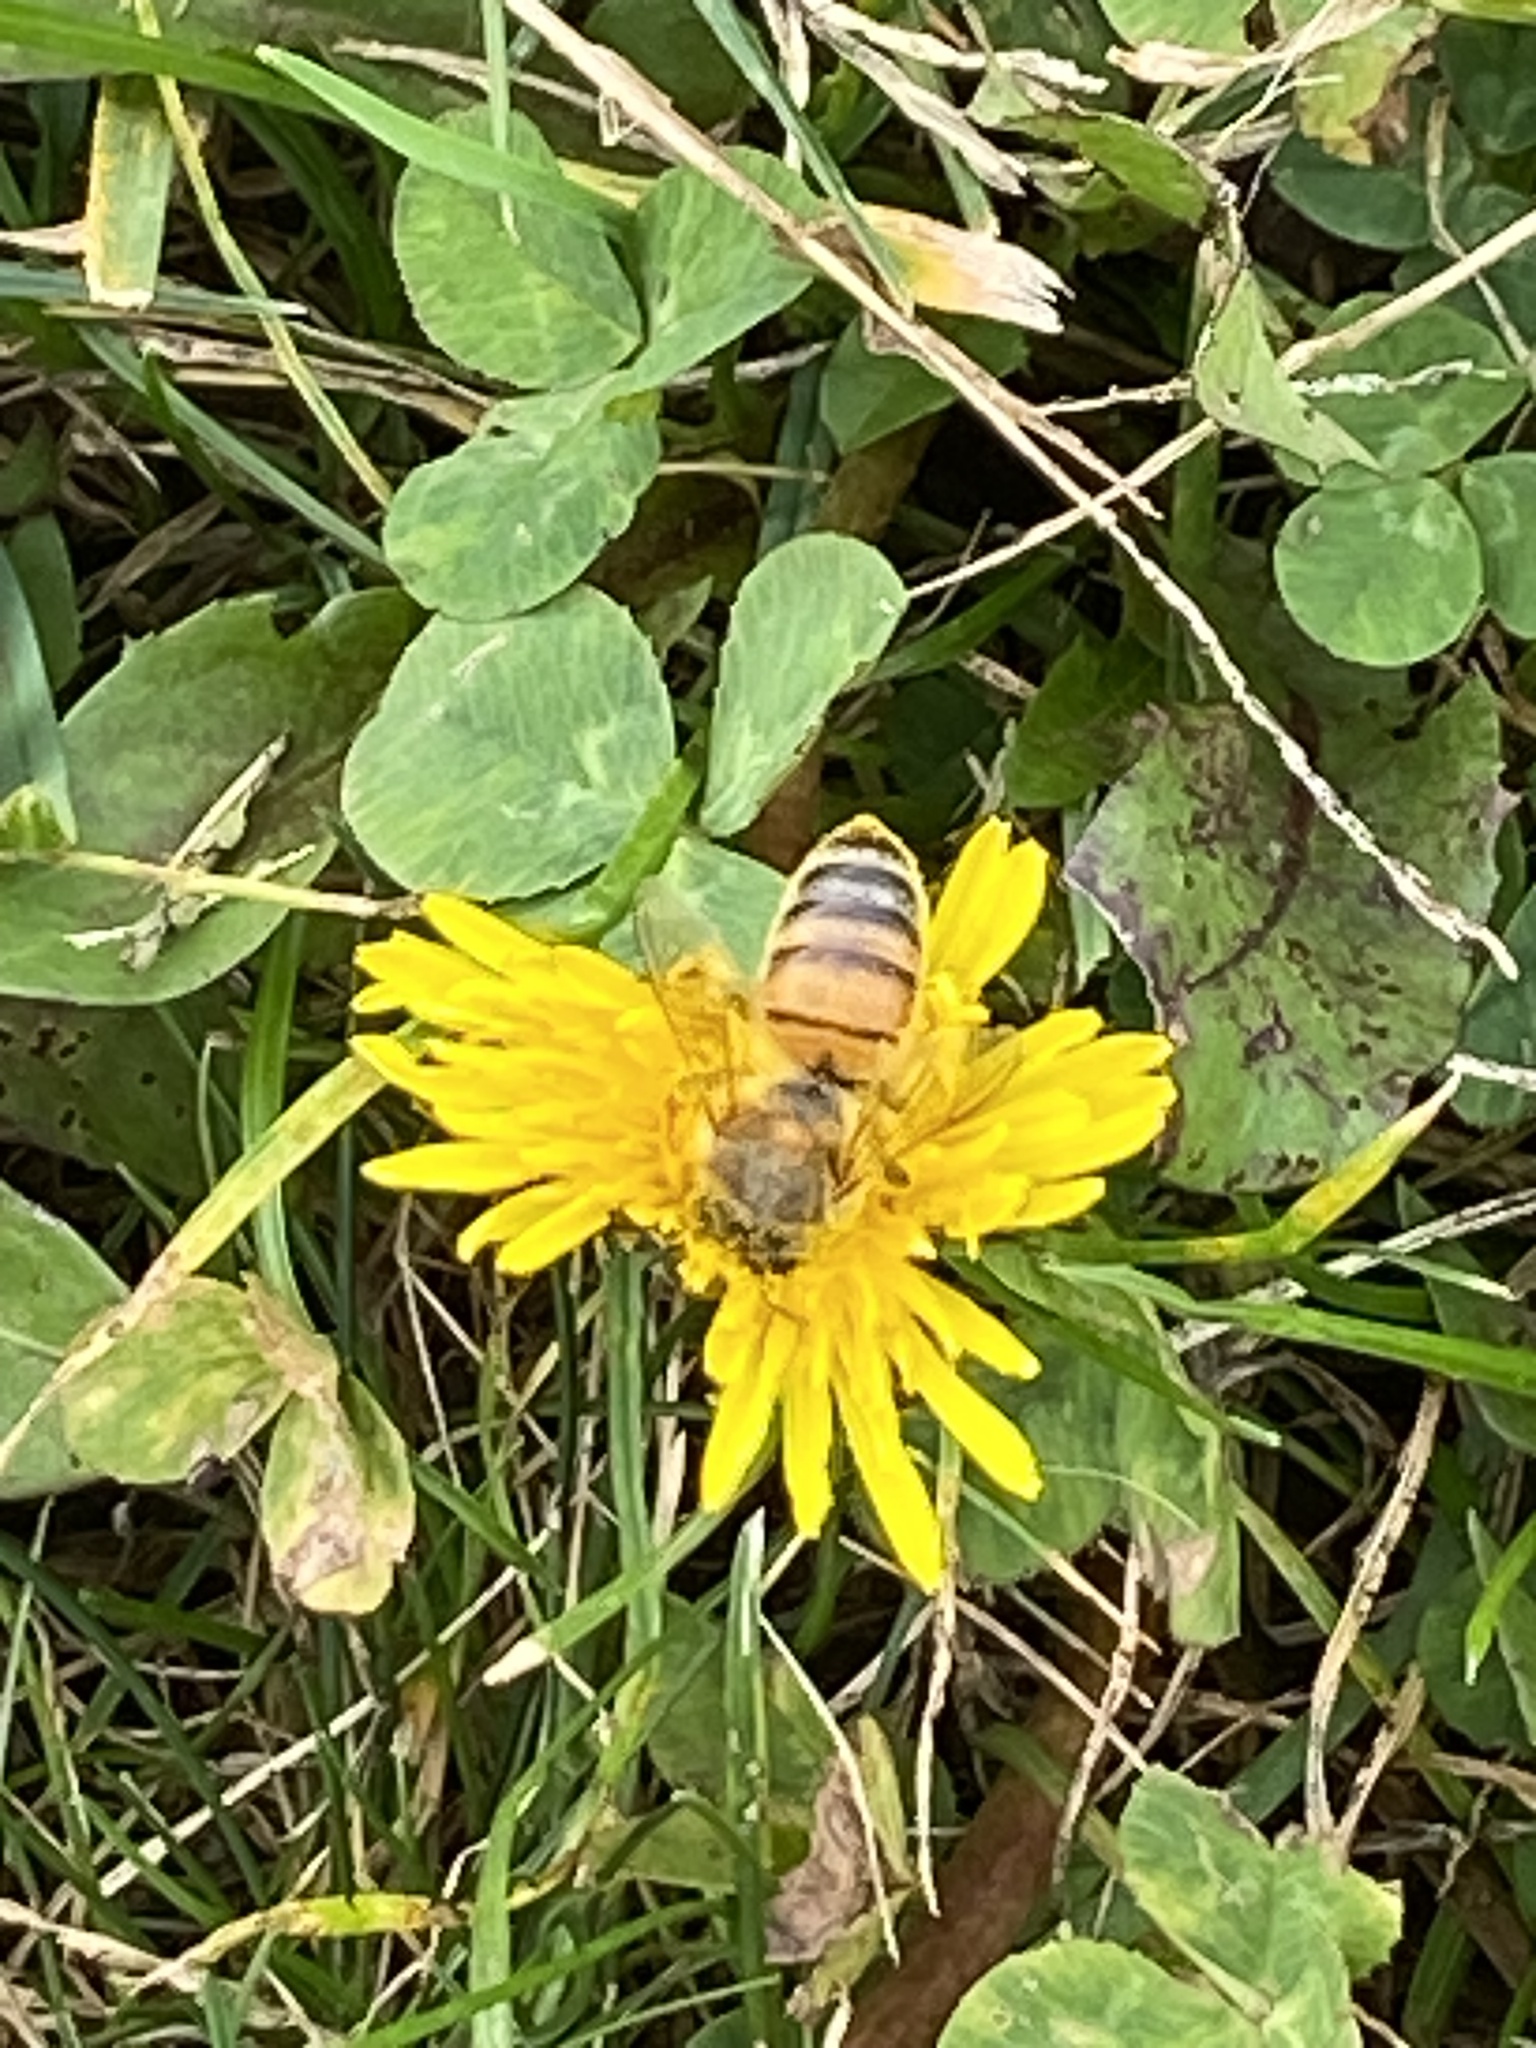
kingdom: Animalia
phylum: Arthropoda
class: Insecta
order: Hymenoptera
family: Apidae
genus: Apis
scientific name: Apis mellifera
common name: Honey bee
